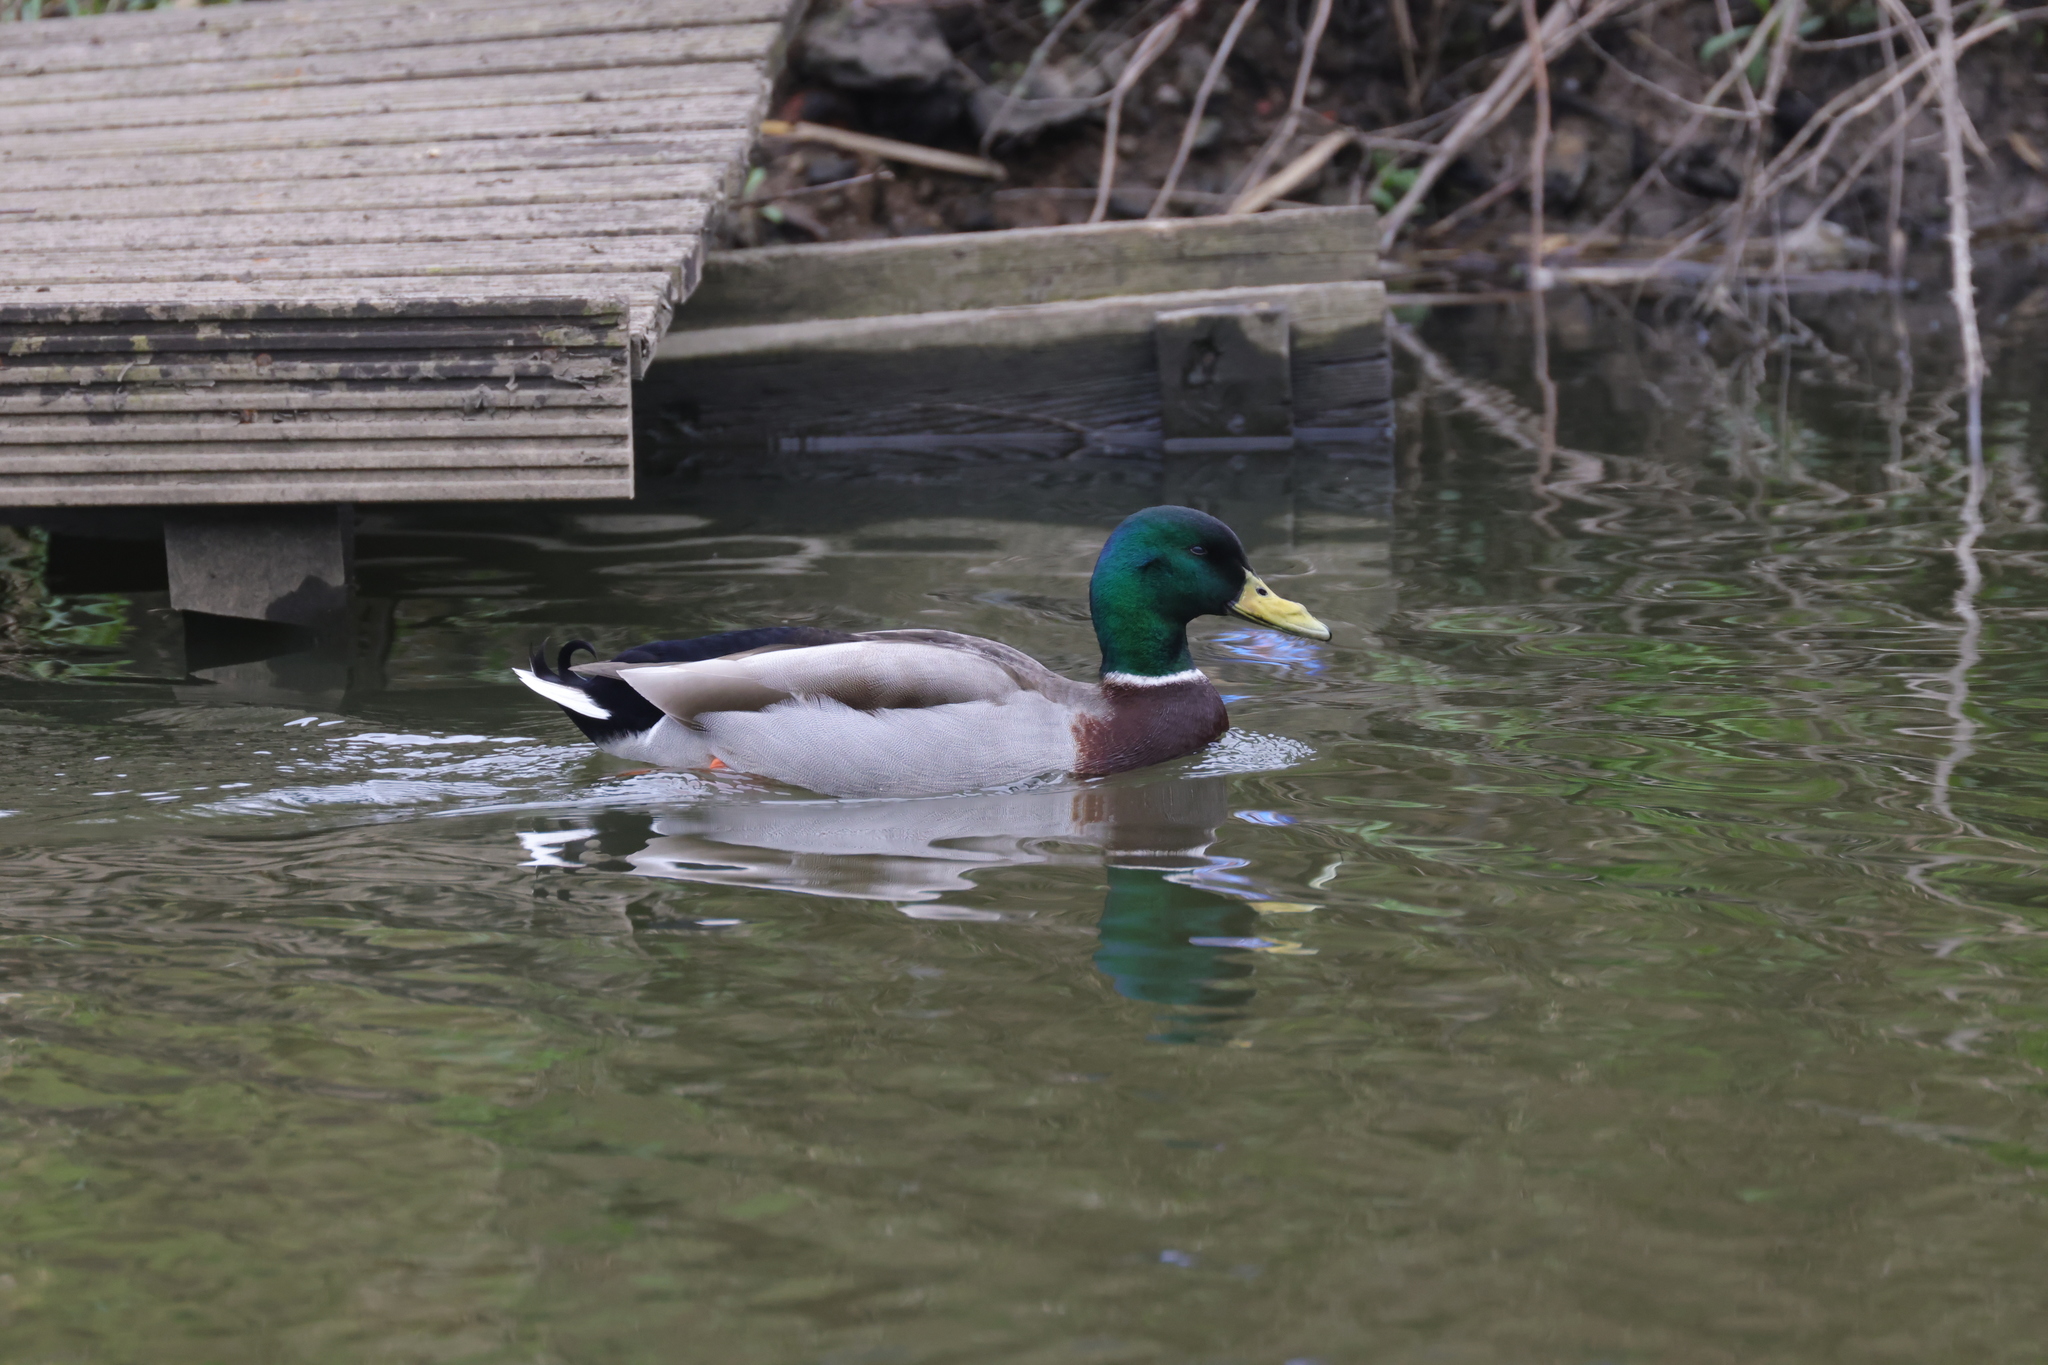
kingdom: Animalia
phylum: Chordata
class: Aves
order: Anseriformes
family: Anatidae
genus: Anas
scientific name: Anas platyrhynchos
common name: Mallard
